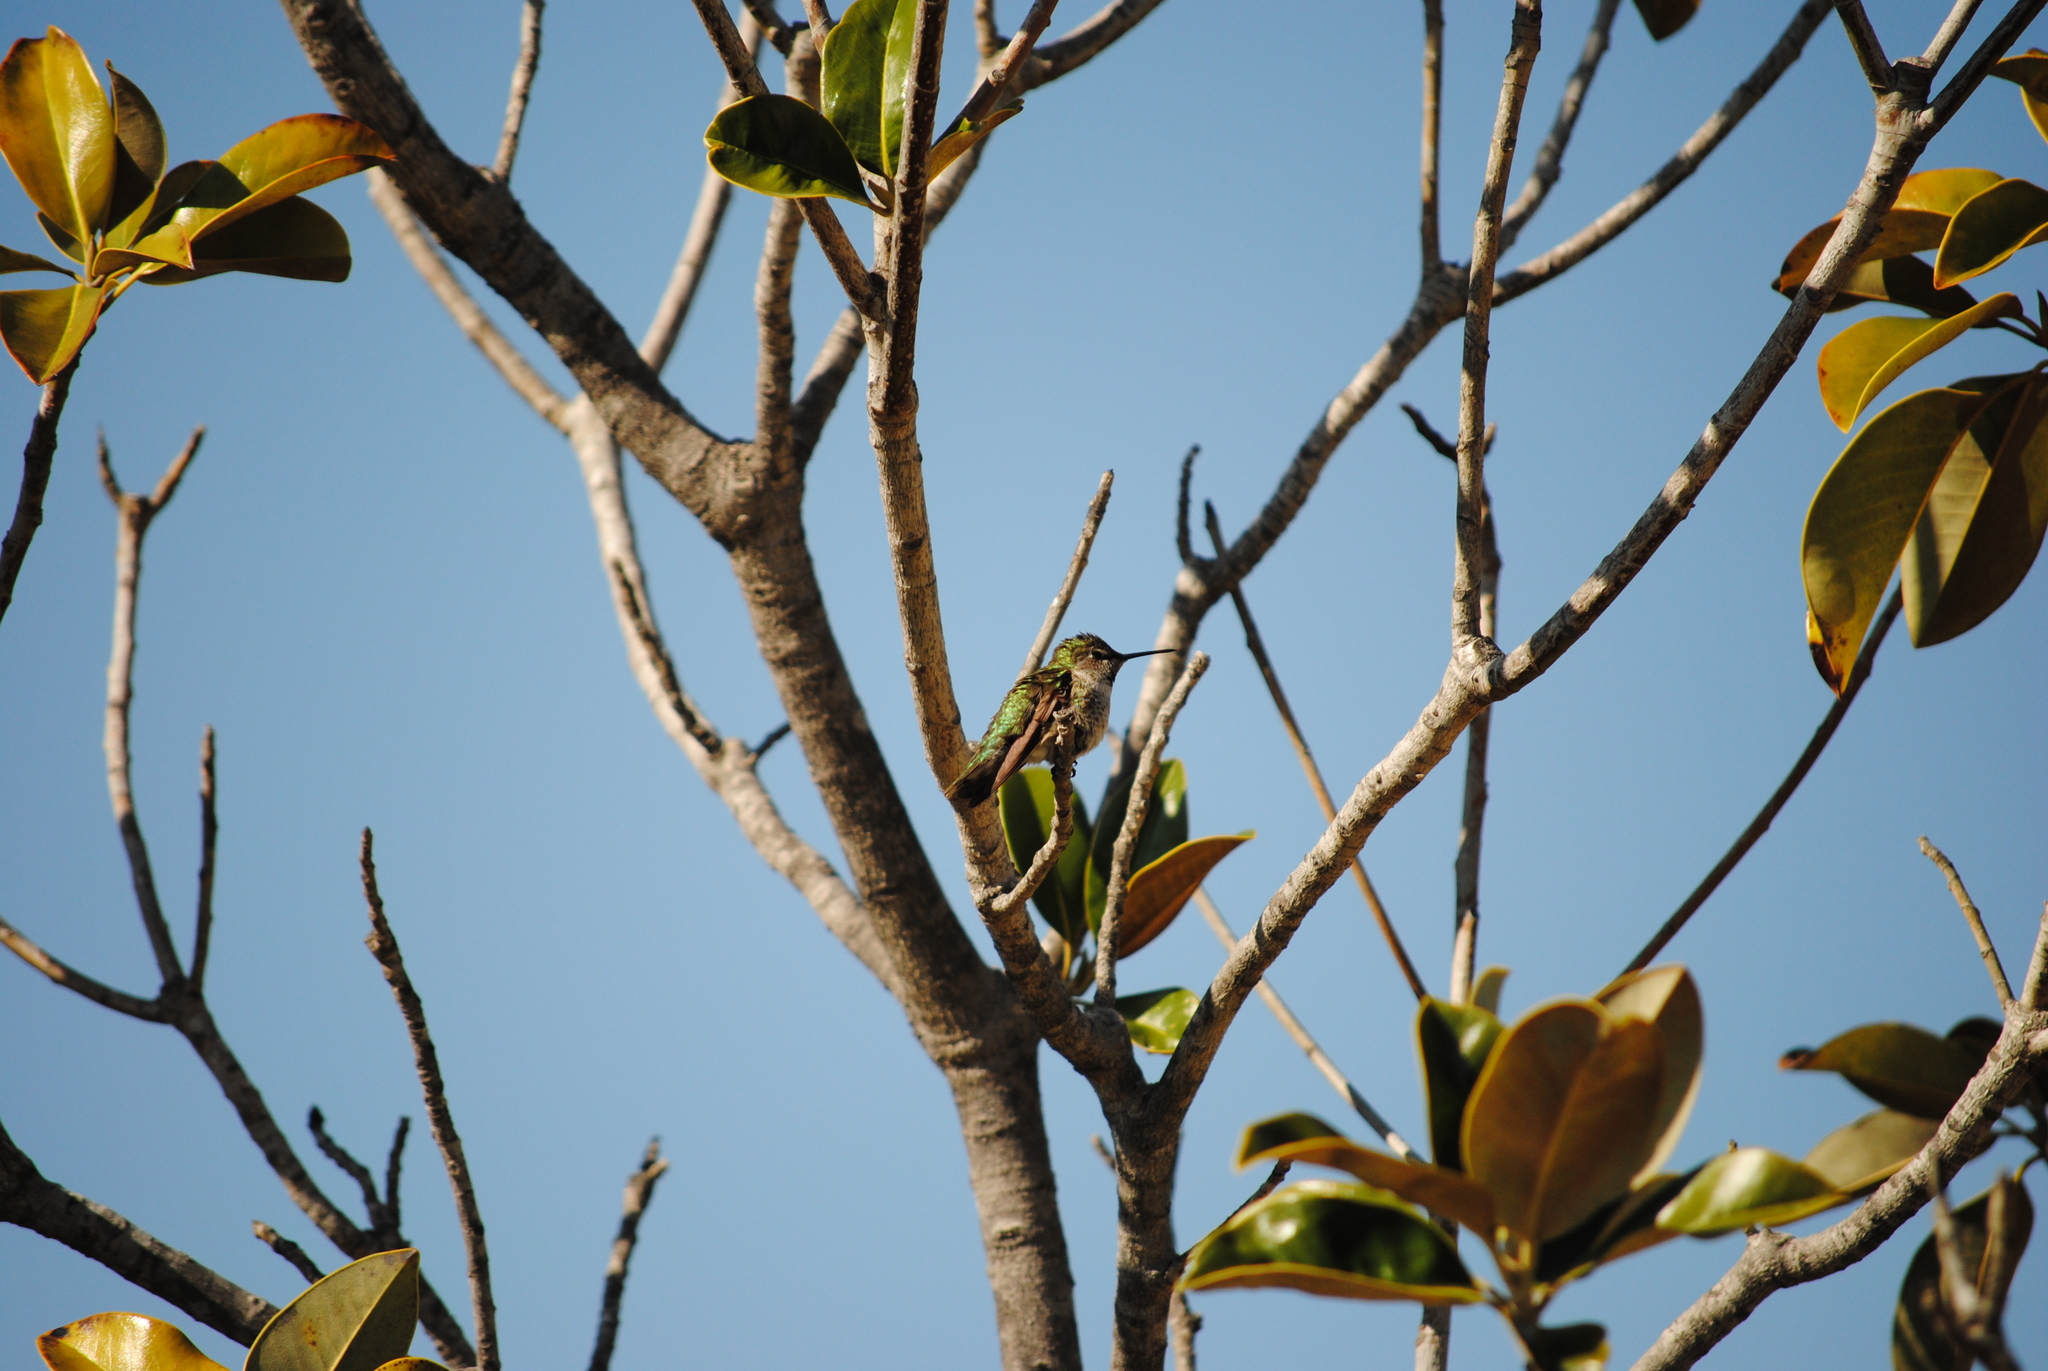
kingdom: Animalia
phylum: Chordata
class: Aves
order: Apodiformes
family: Trochilidae
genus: Calypte
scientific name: Calypte anna
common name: Anna's hummingbird
